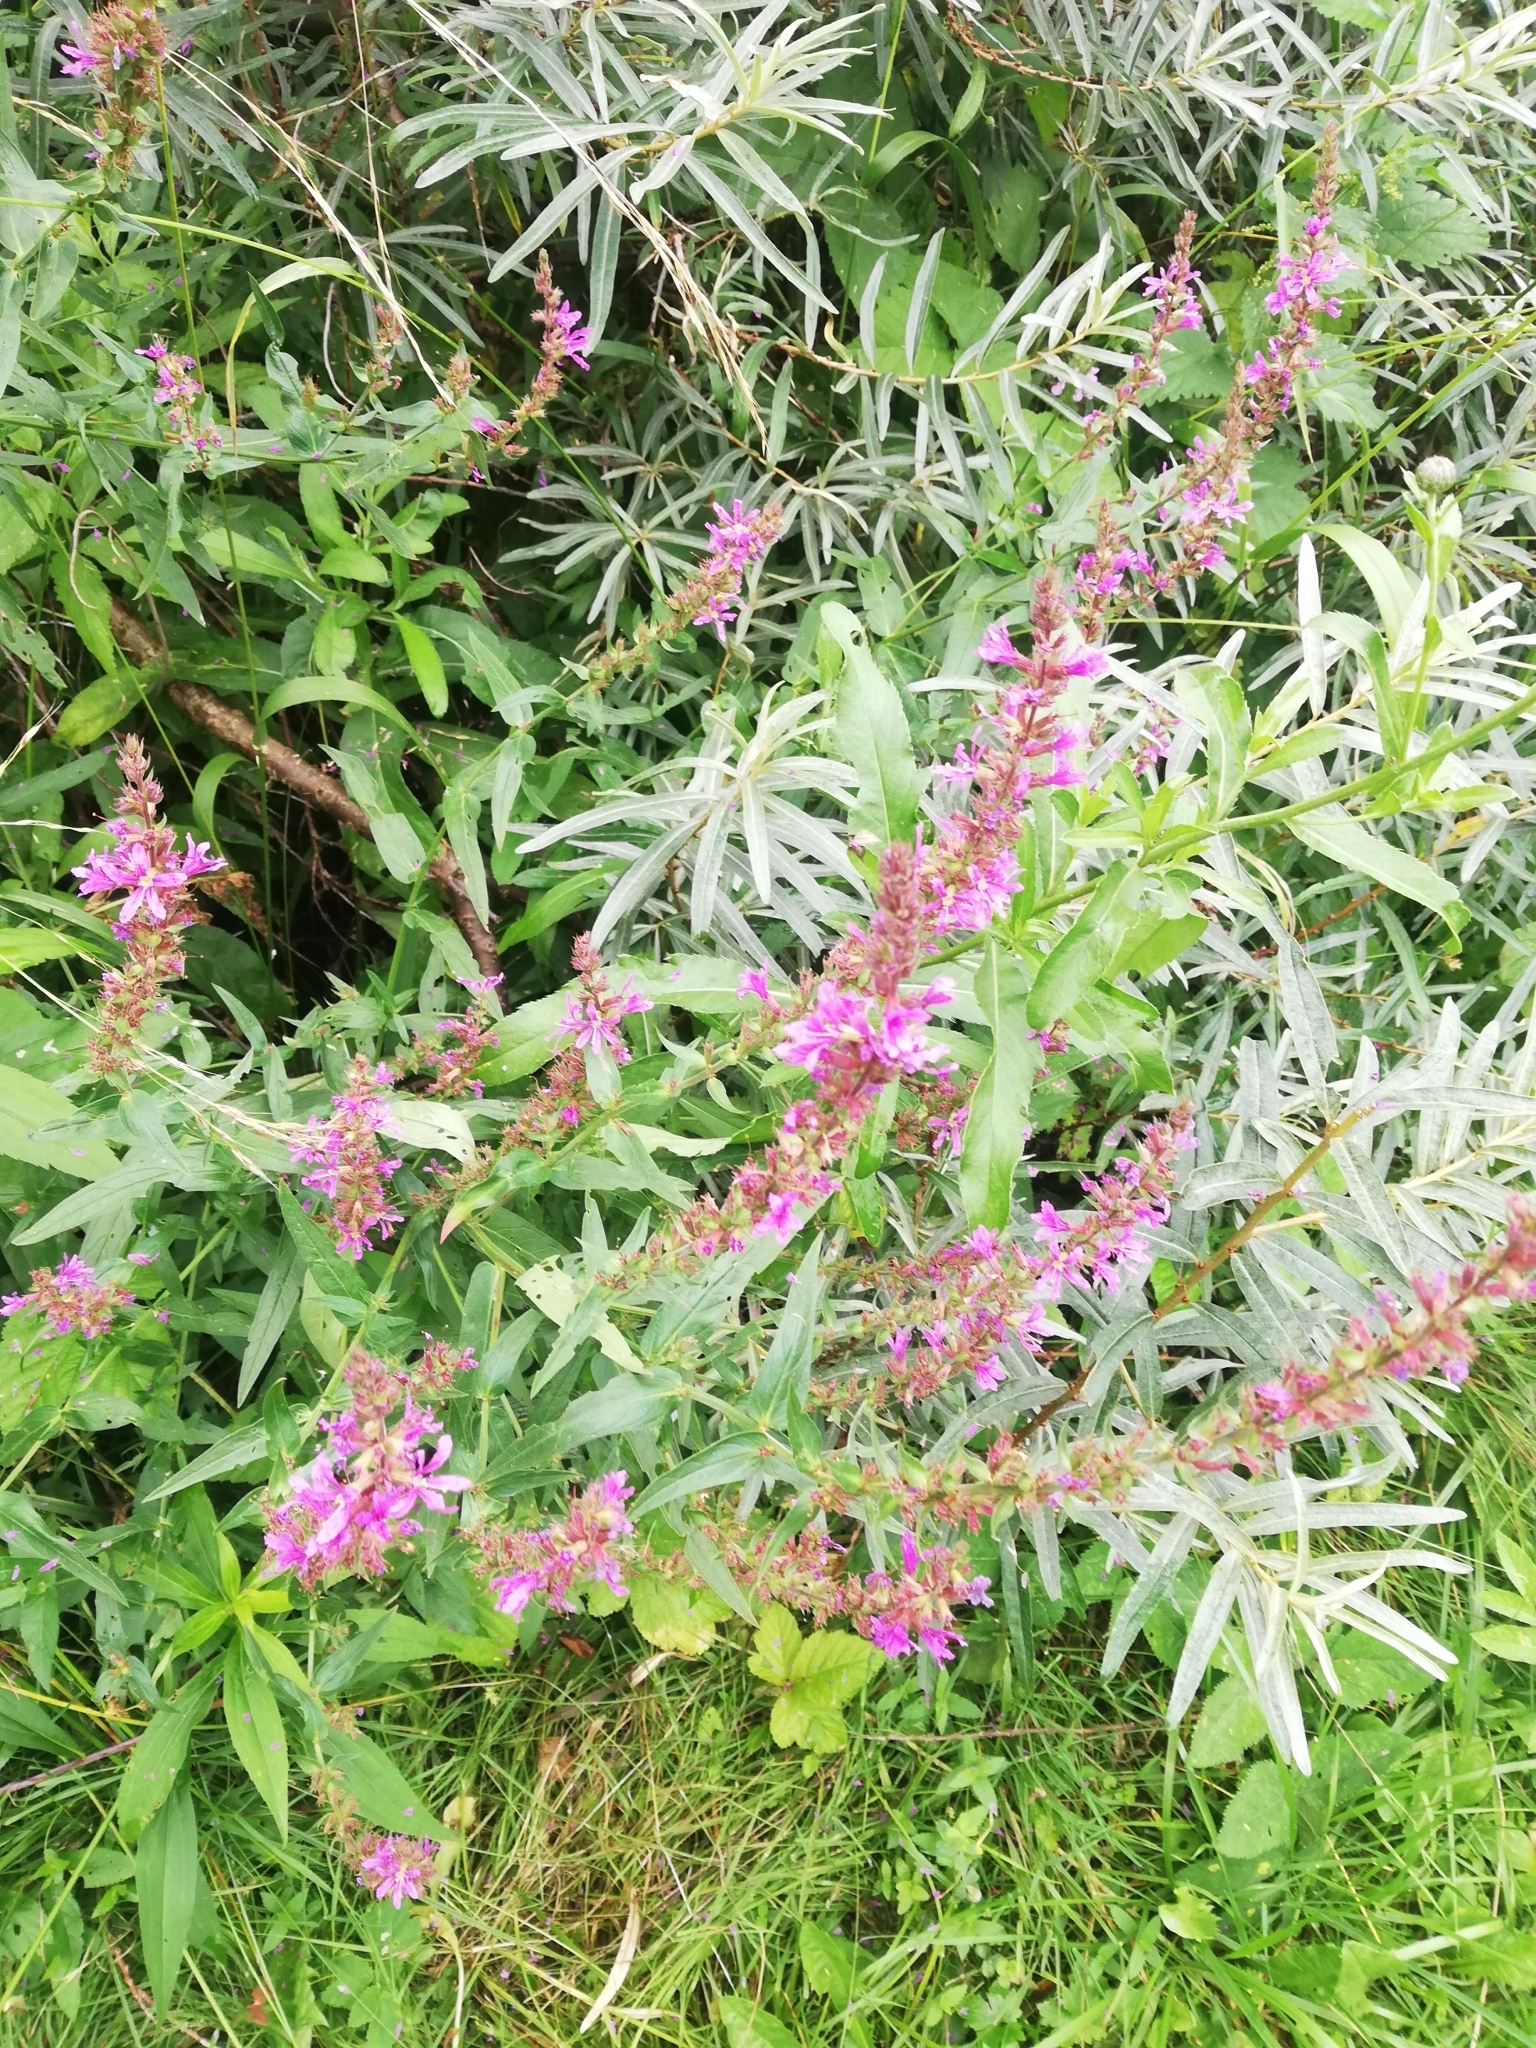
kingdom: Plantae
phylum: Tracheophyta
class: Magnoliopsida
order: Myrtales
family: Lythraceae
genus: Lythrum
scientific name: Lythrum salicaria
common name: Purple loosestrife
